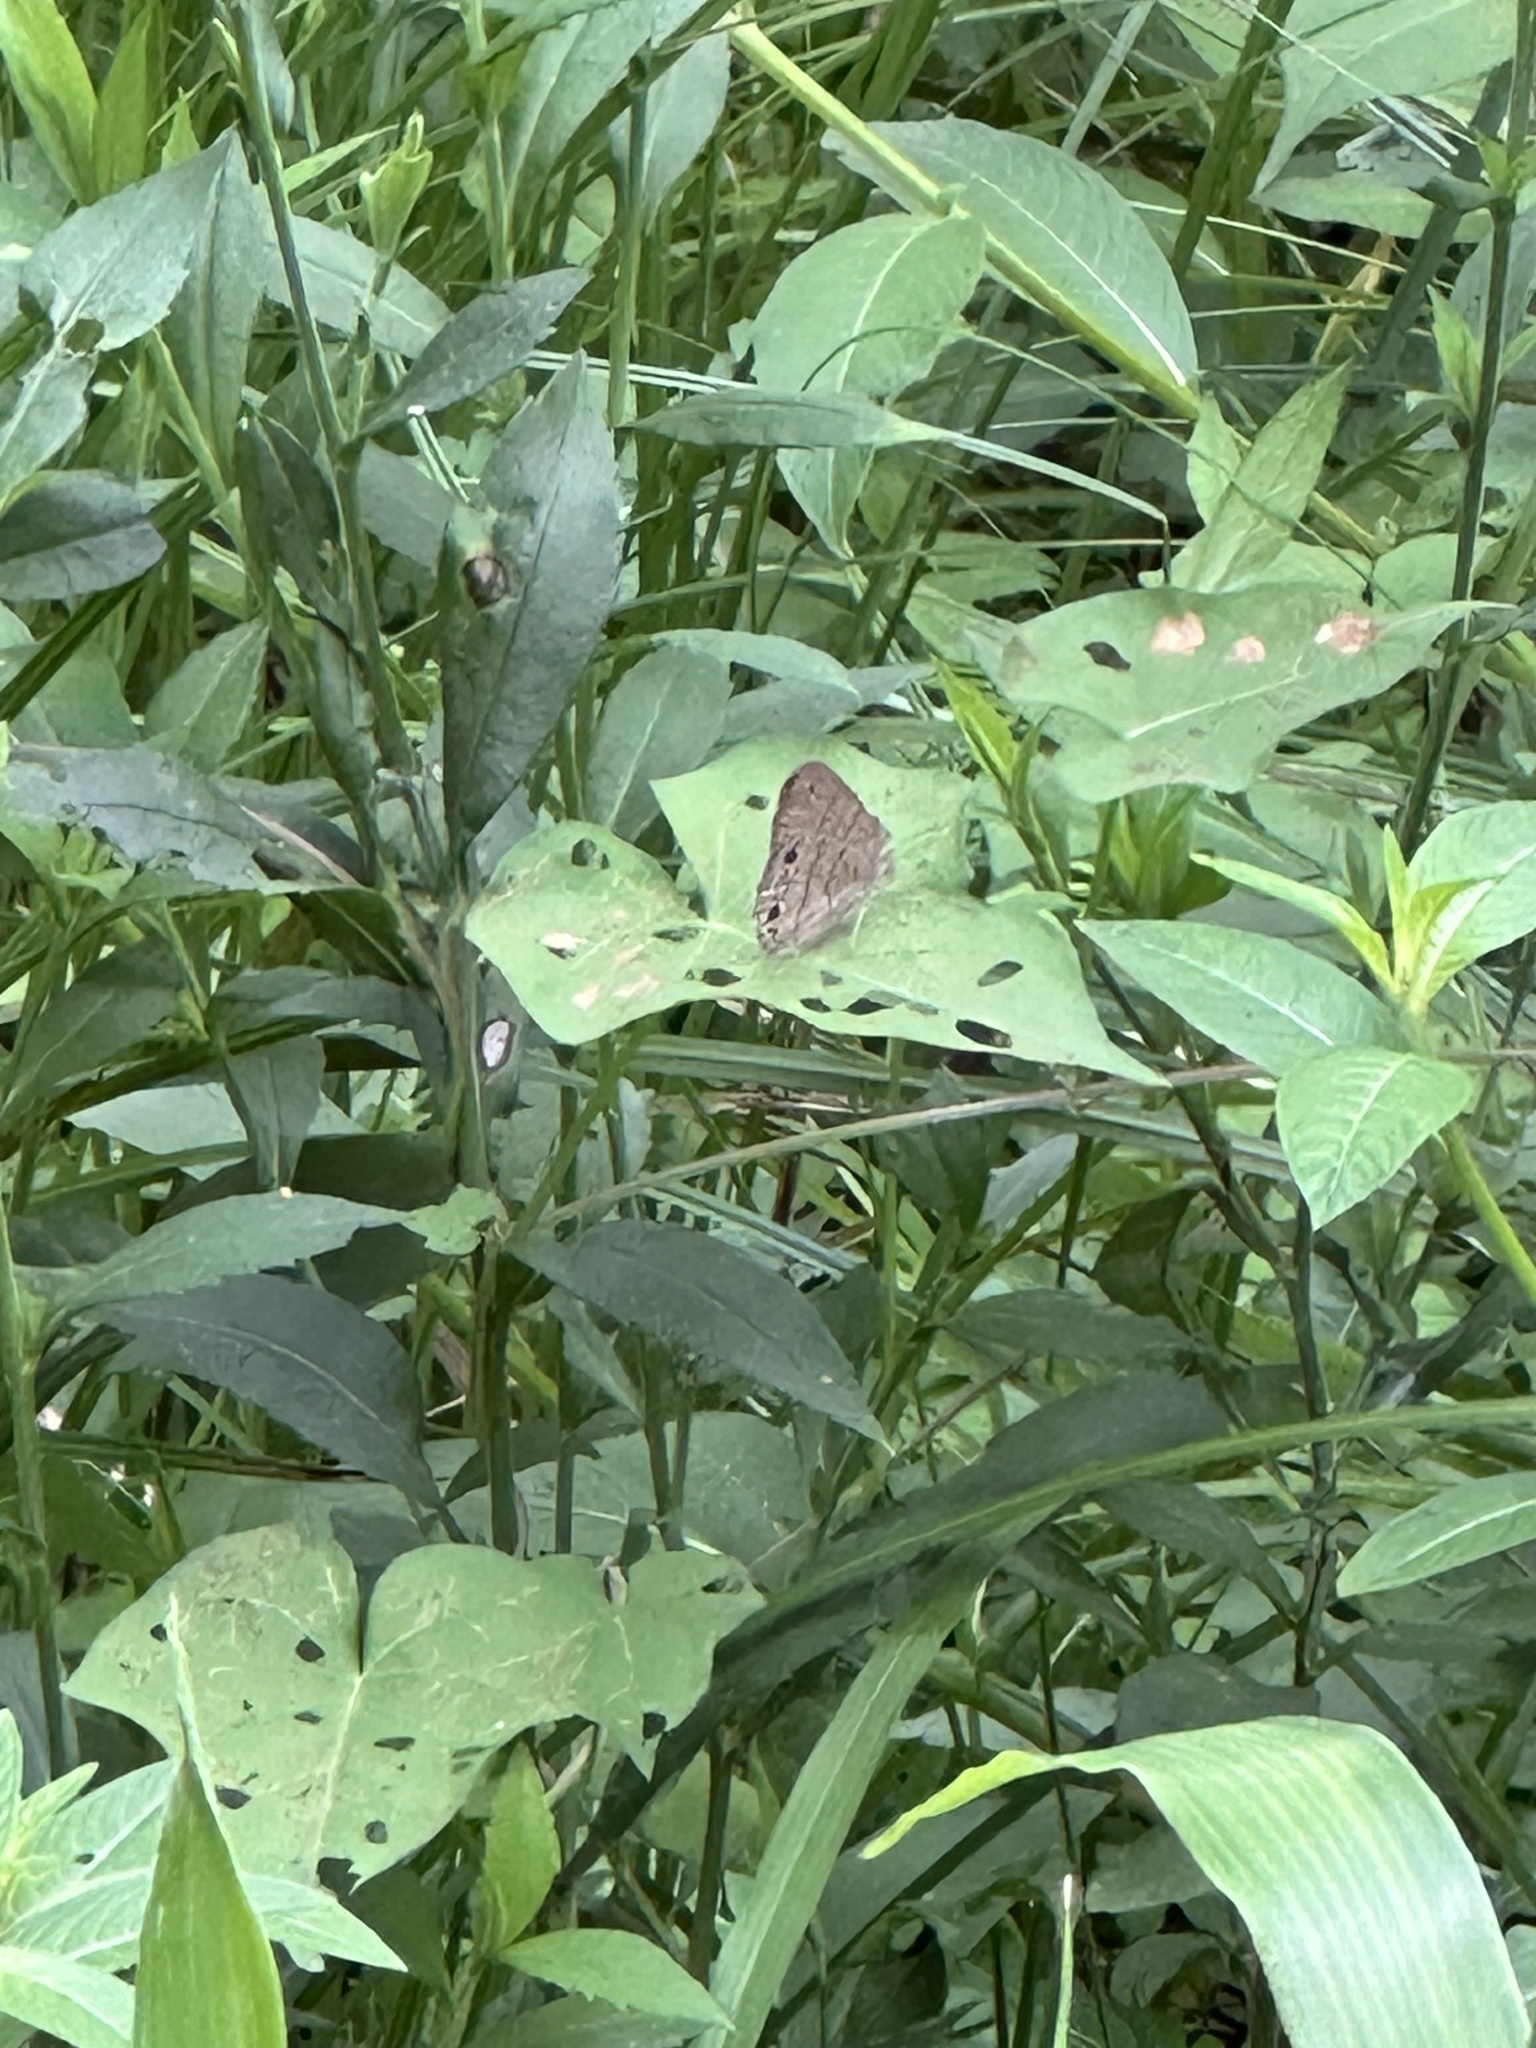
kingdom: Animalia
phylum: Arthropoda
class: Insecta
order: Lepidoptera
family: Nymphalidae
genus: Hermeuptychia
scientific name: Hermeuptychia hermes
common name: Hermes satyr
